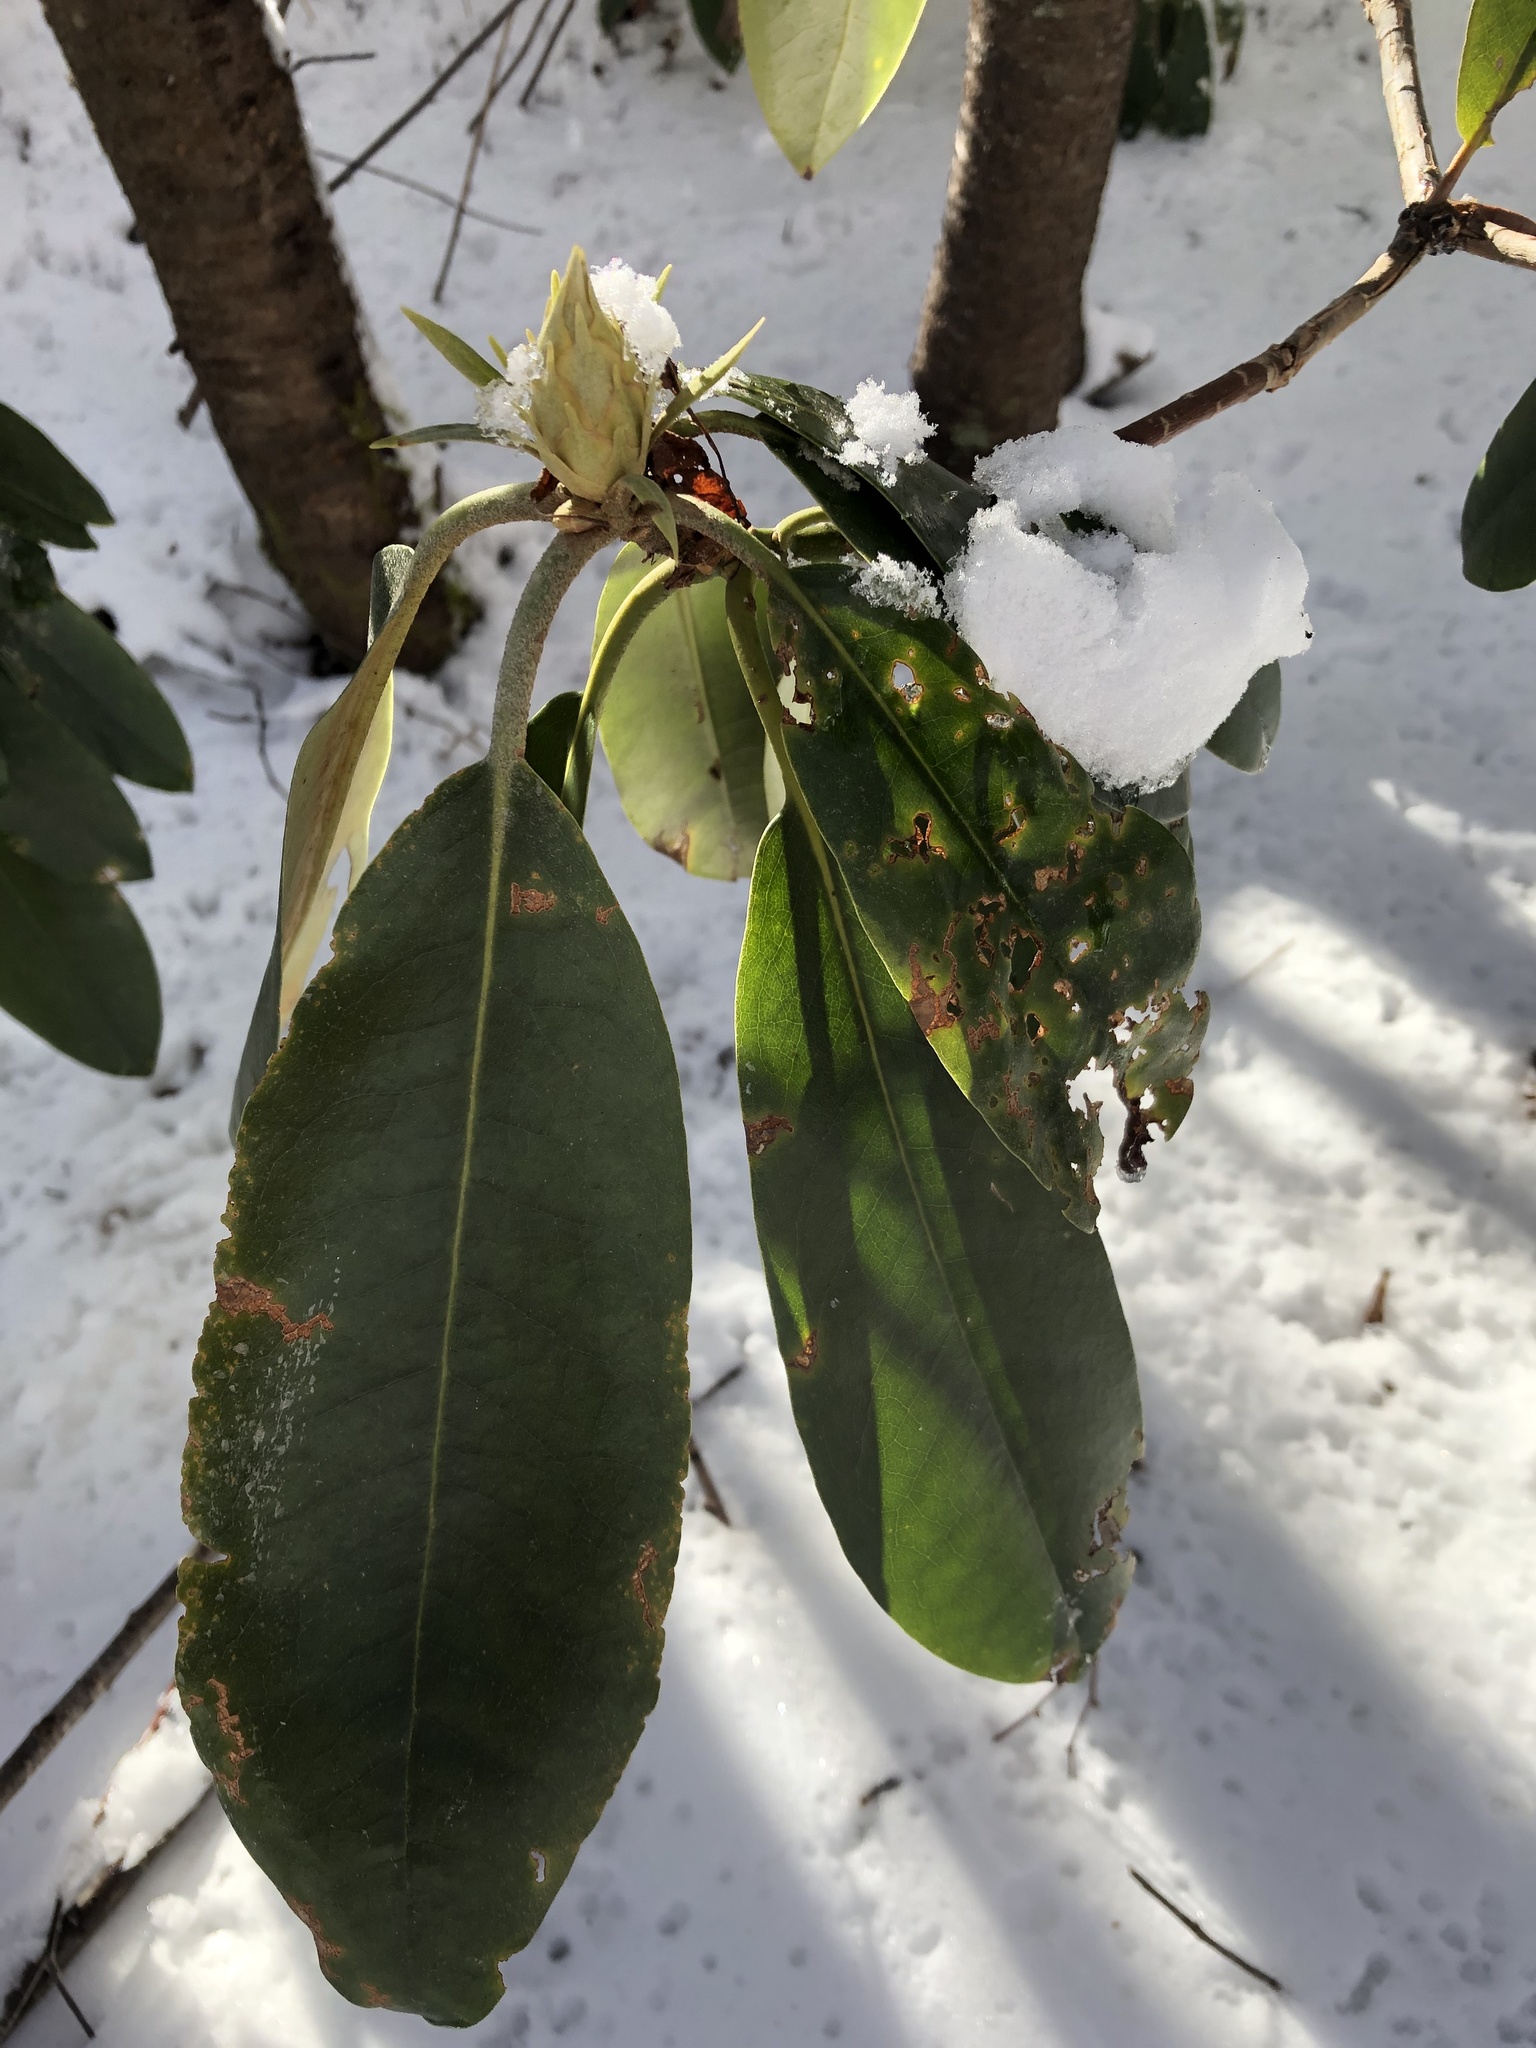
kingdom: Plantae
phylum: Tracheophyta
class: Magnoliopsida
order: Ericales
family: Ericaceae
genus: Rhododendron
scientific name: Rhododendron maximum
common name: Great rhododendron
